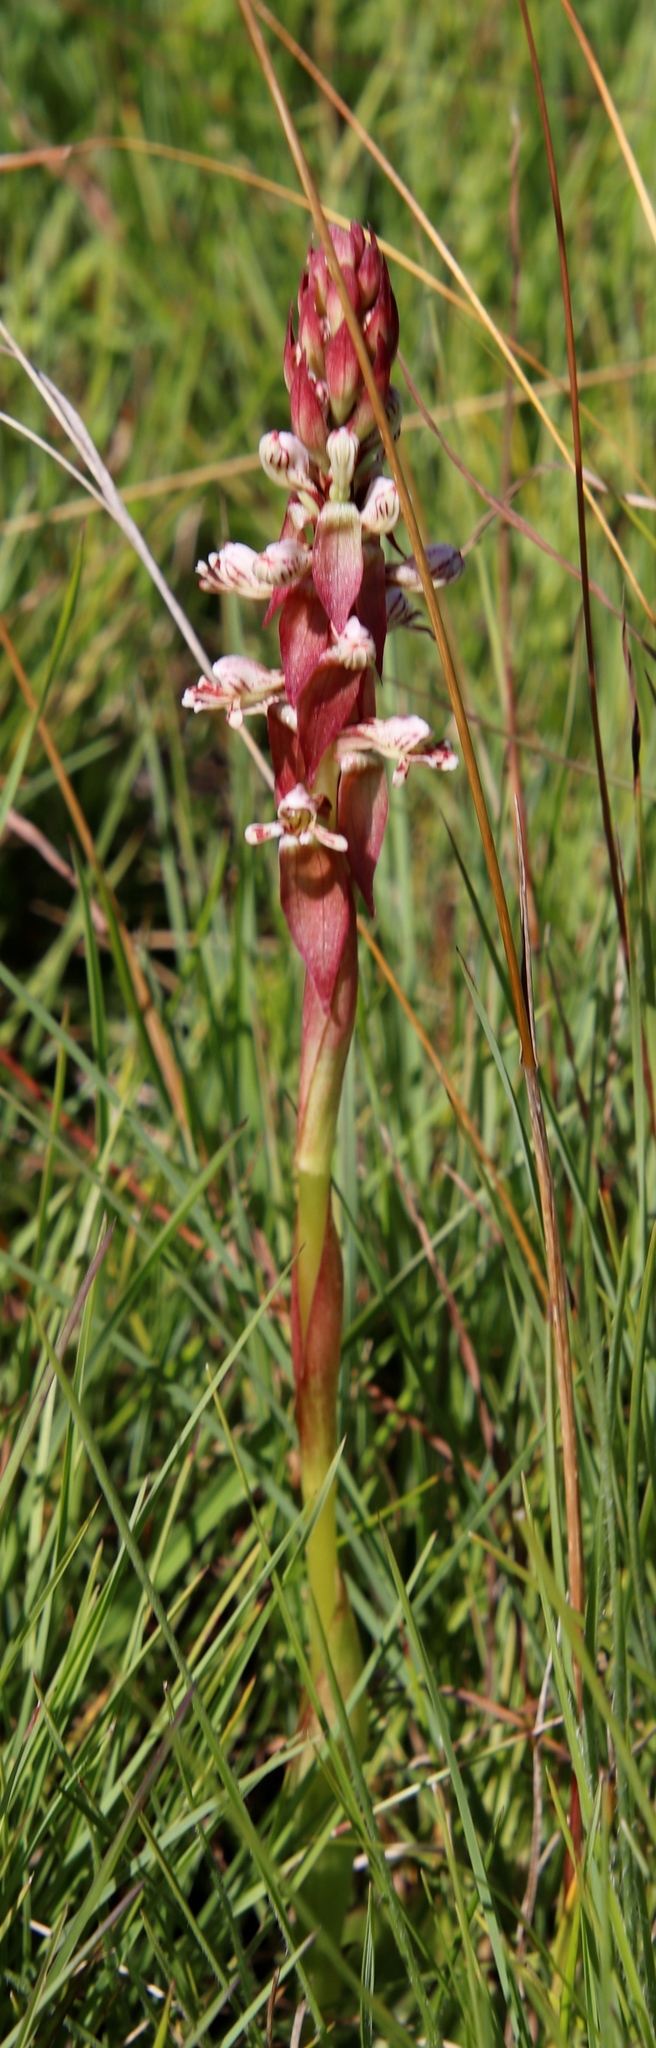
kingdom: Plantae
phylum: Tracheophyta
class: Liliopsida
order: Asparagales
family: Orchidaceae
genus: Satyrium
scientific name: Satyrium cristatum
